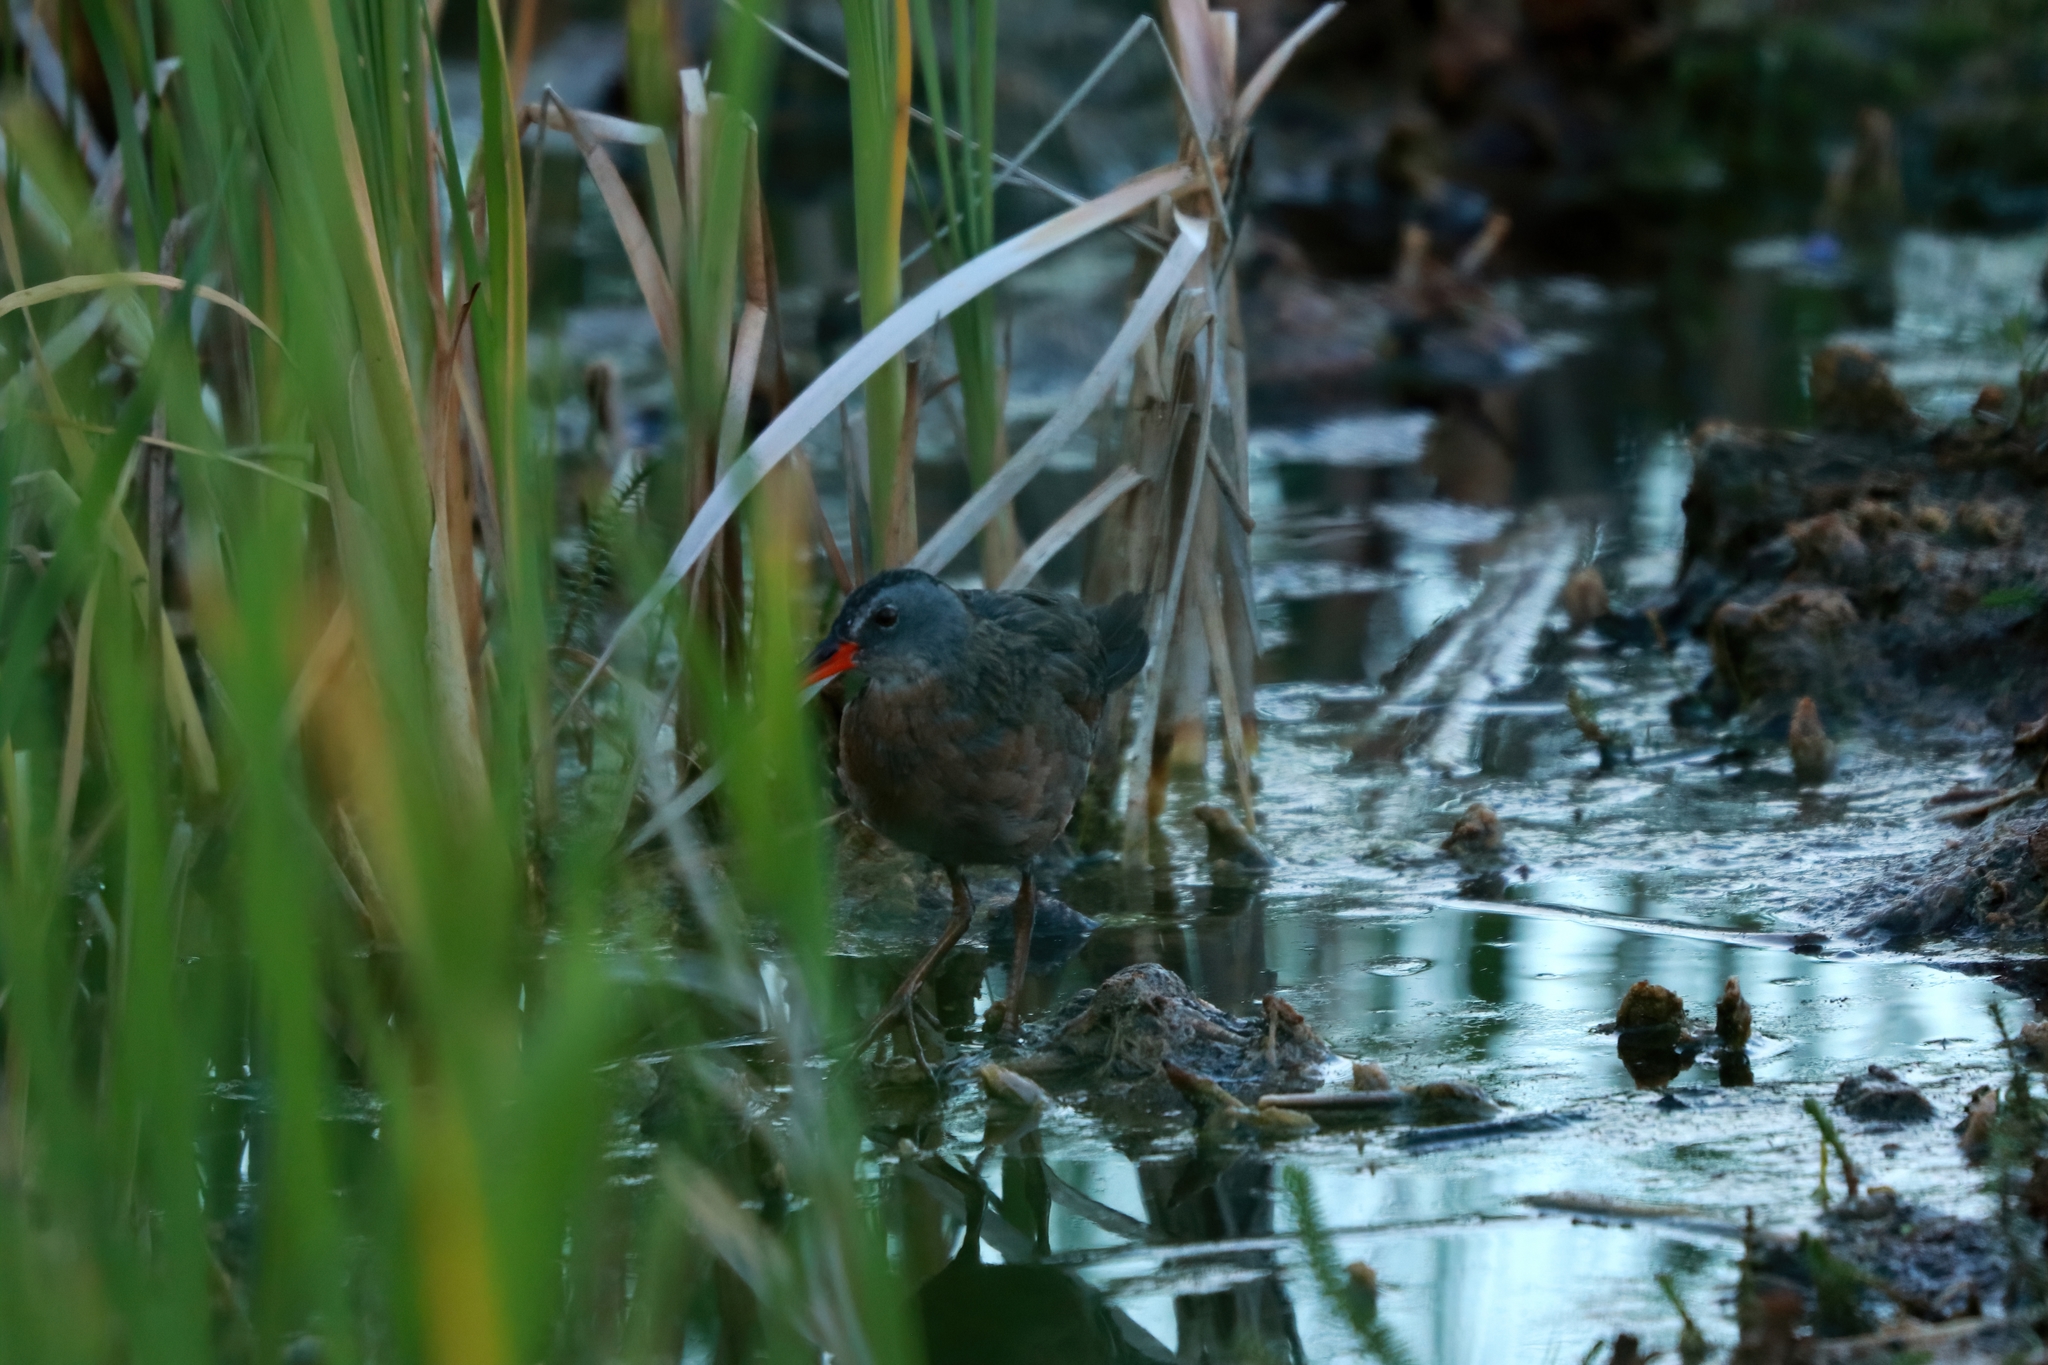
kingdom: Animalia
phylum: Chordata
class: Aves
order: Gruiformes
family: Rallidae
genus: Rallus
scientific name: Rallus limicola
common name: Virginia rail
